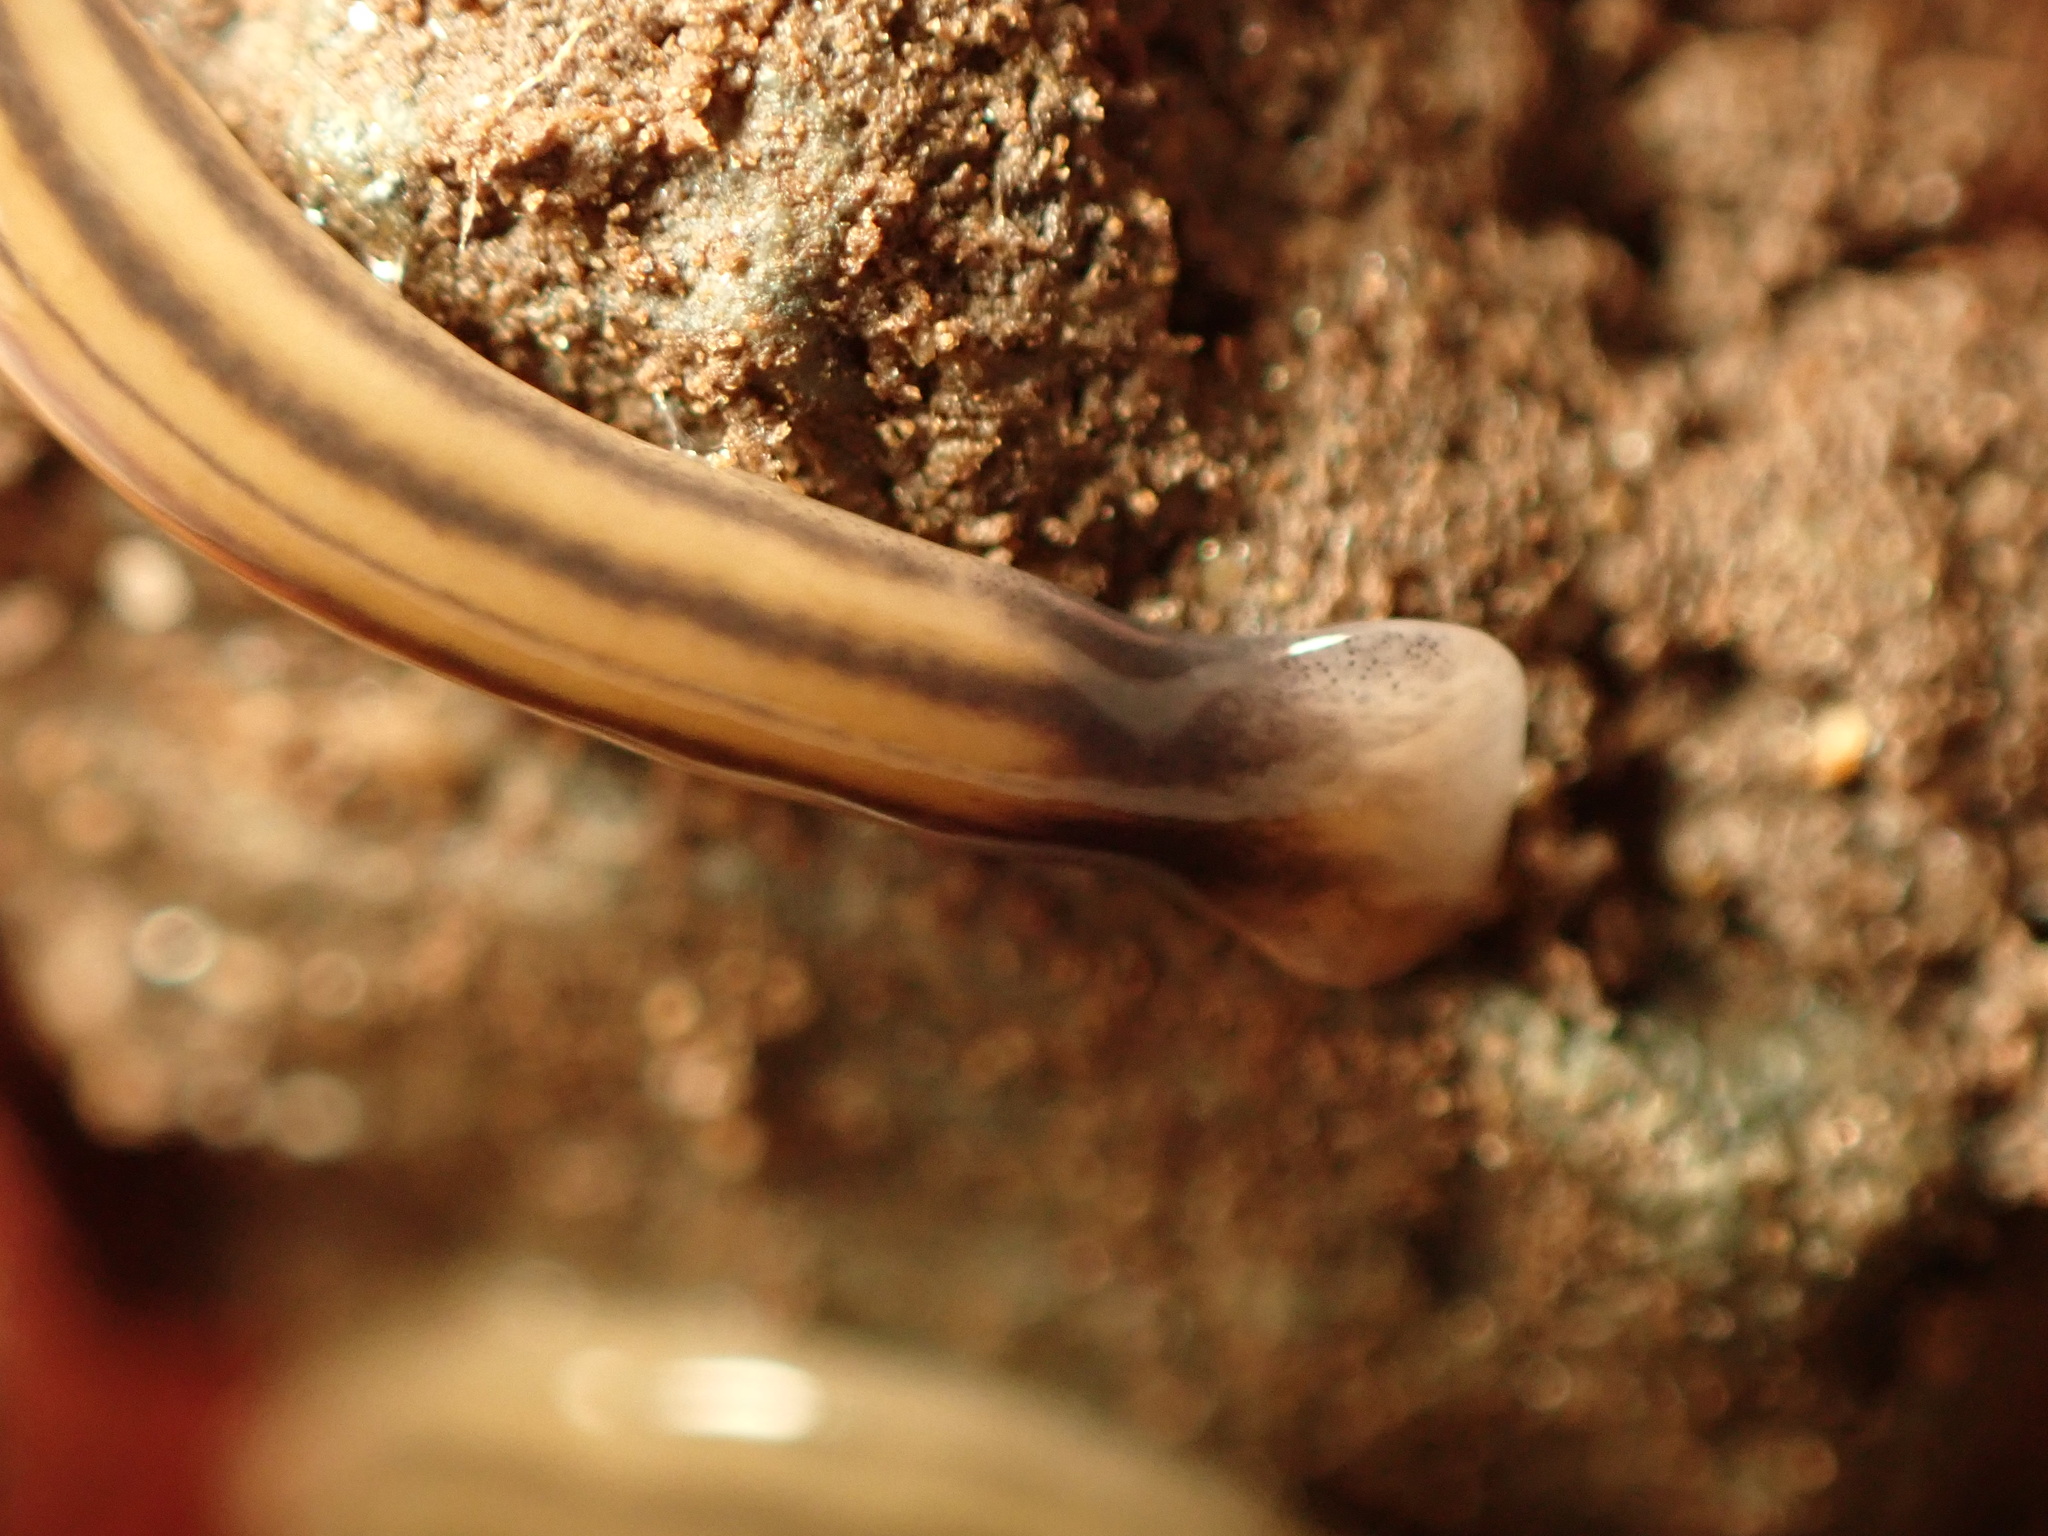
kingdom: Animalia
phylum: Platyhelminthes
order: Tricladida
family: Geoplanidae
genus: Bipalium
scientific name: Bipalium kewense
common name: Hammerhead flatworm
